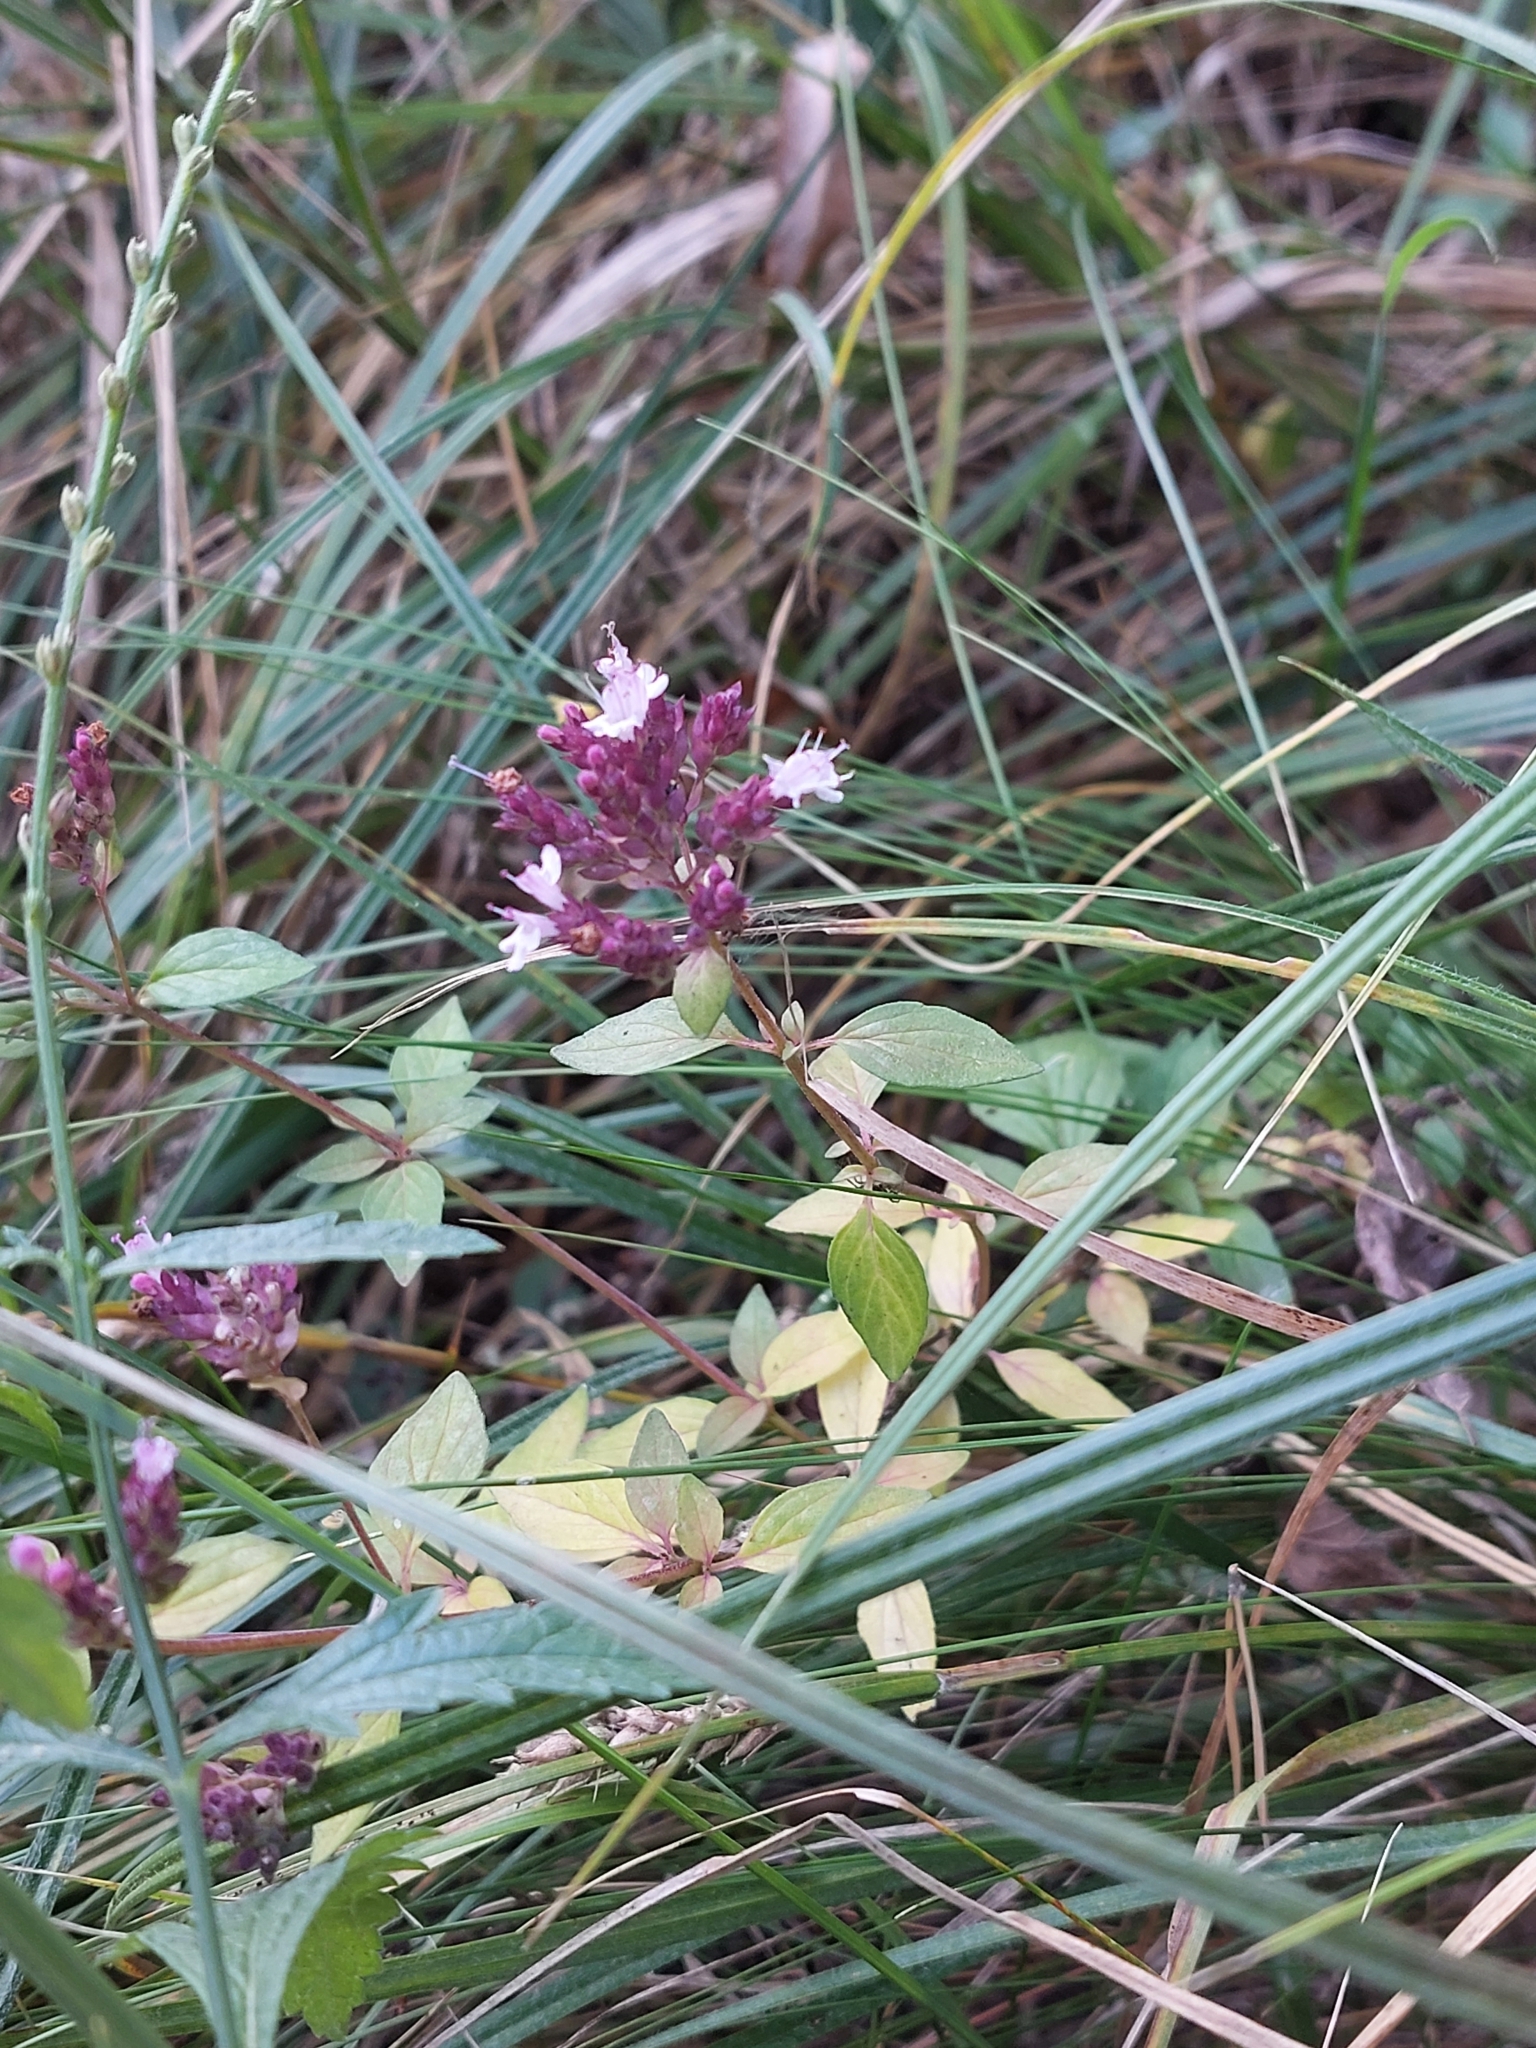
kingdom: Plantae
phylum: Tracheophyta
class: Magnoliopsida
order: Lamiales
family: Lamiaceae
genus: Origanum
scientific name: Origanum vulgare
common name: Wild marjoram
